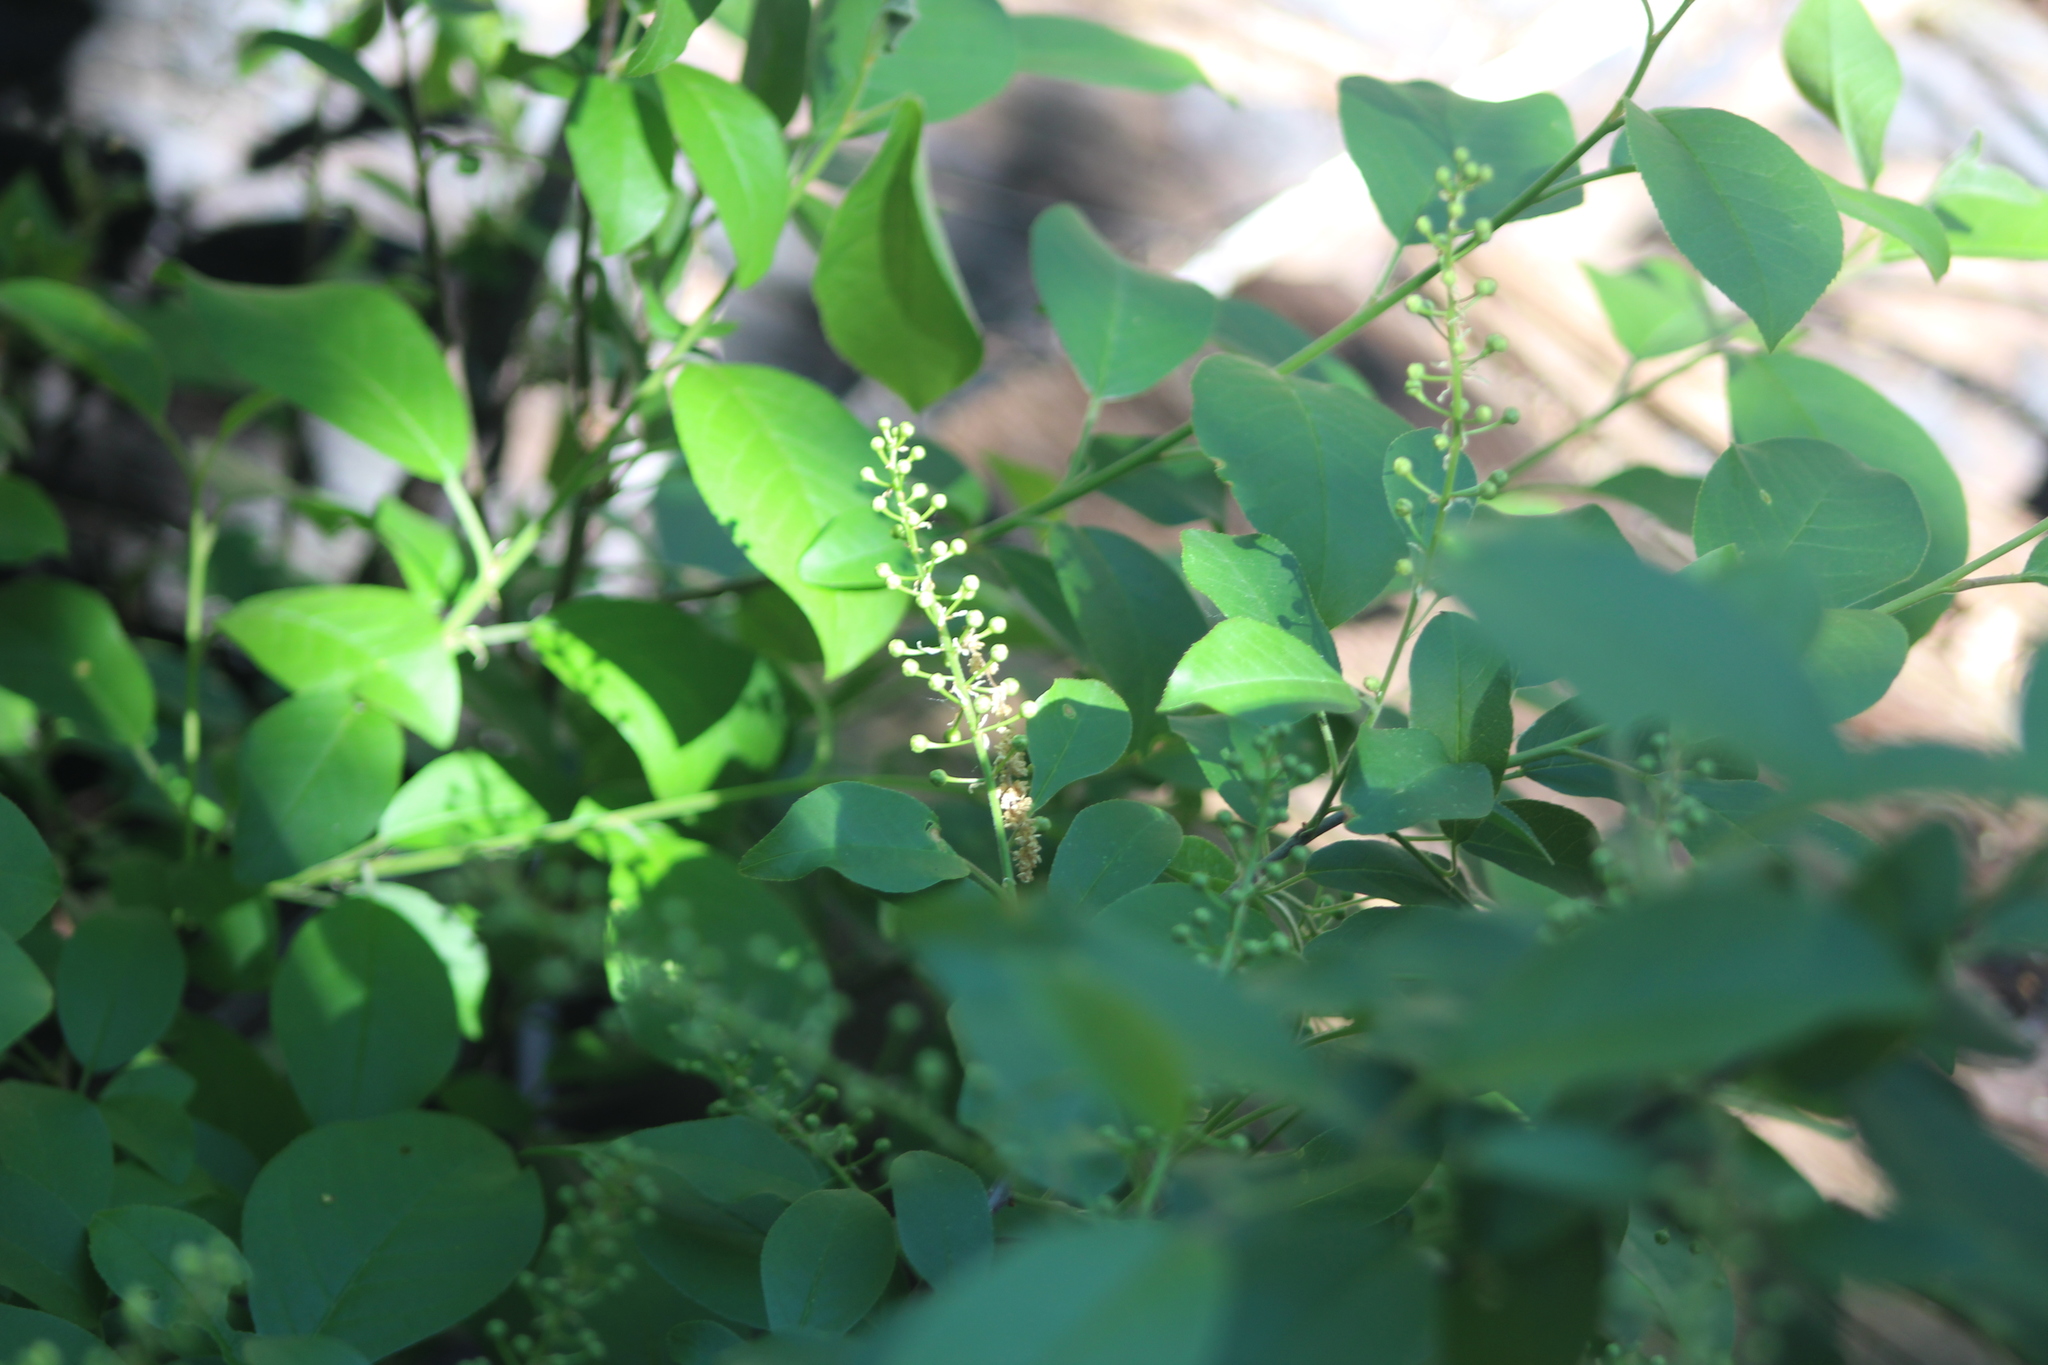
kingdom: Plantae
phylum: Tracheophyta
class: Magnoliopsida
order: Rosales
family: Rosaceae
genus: Prunus
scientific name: Prunus virginiana
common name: Chokecherry
